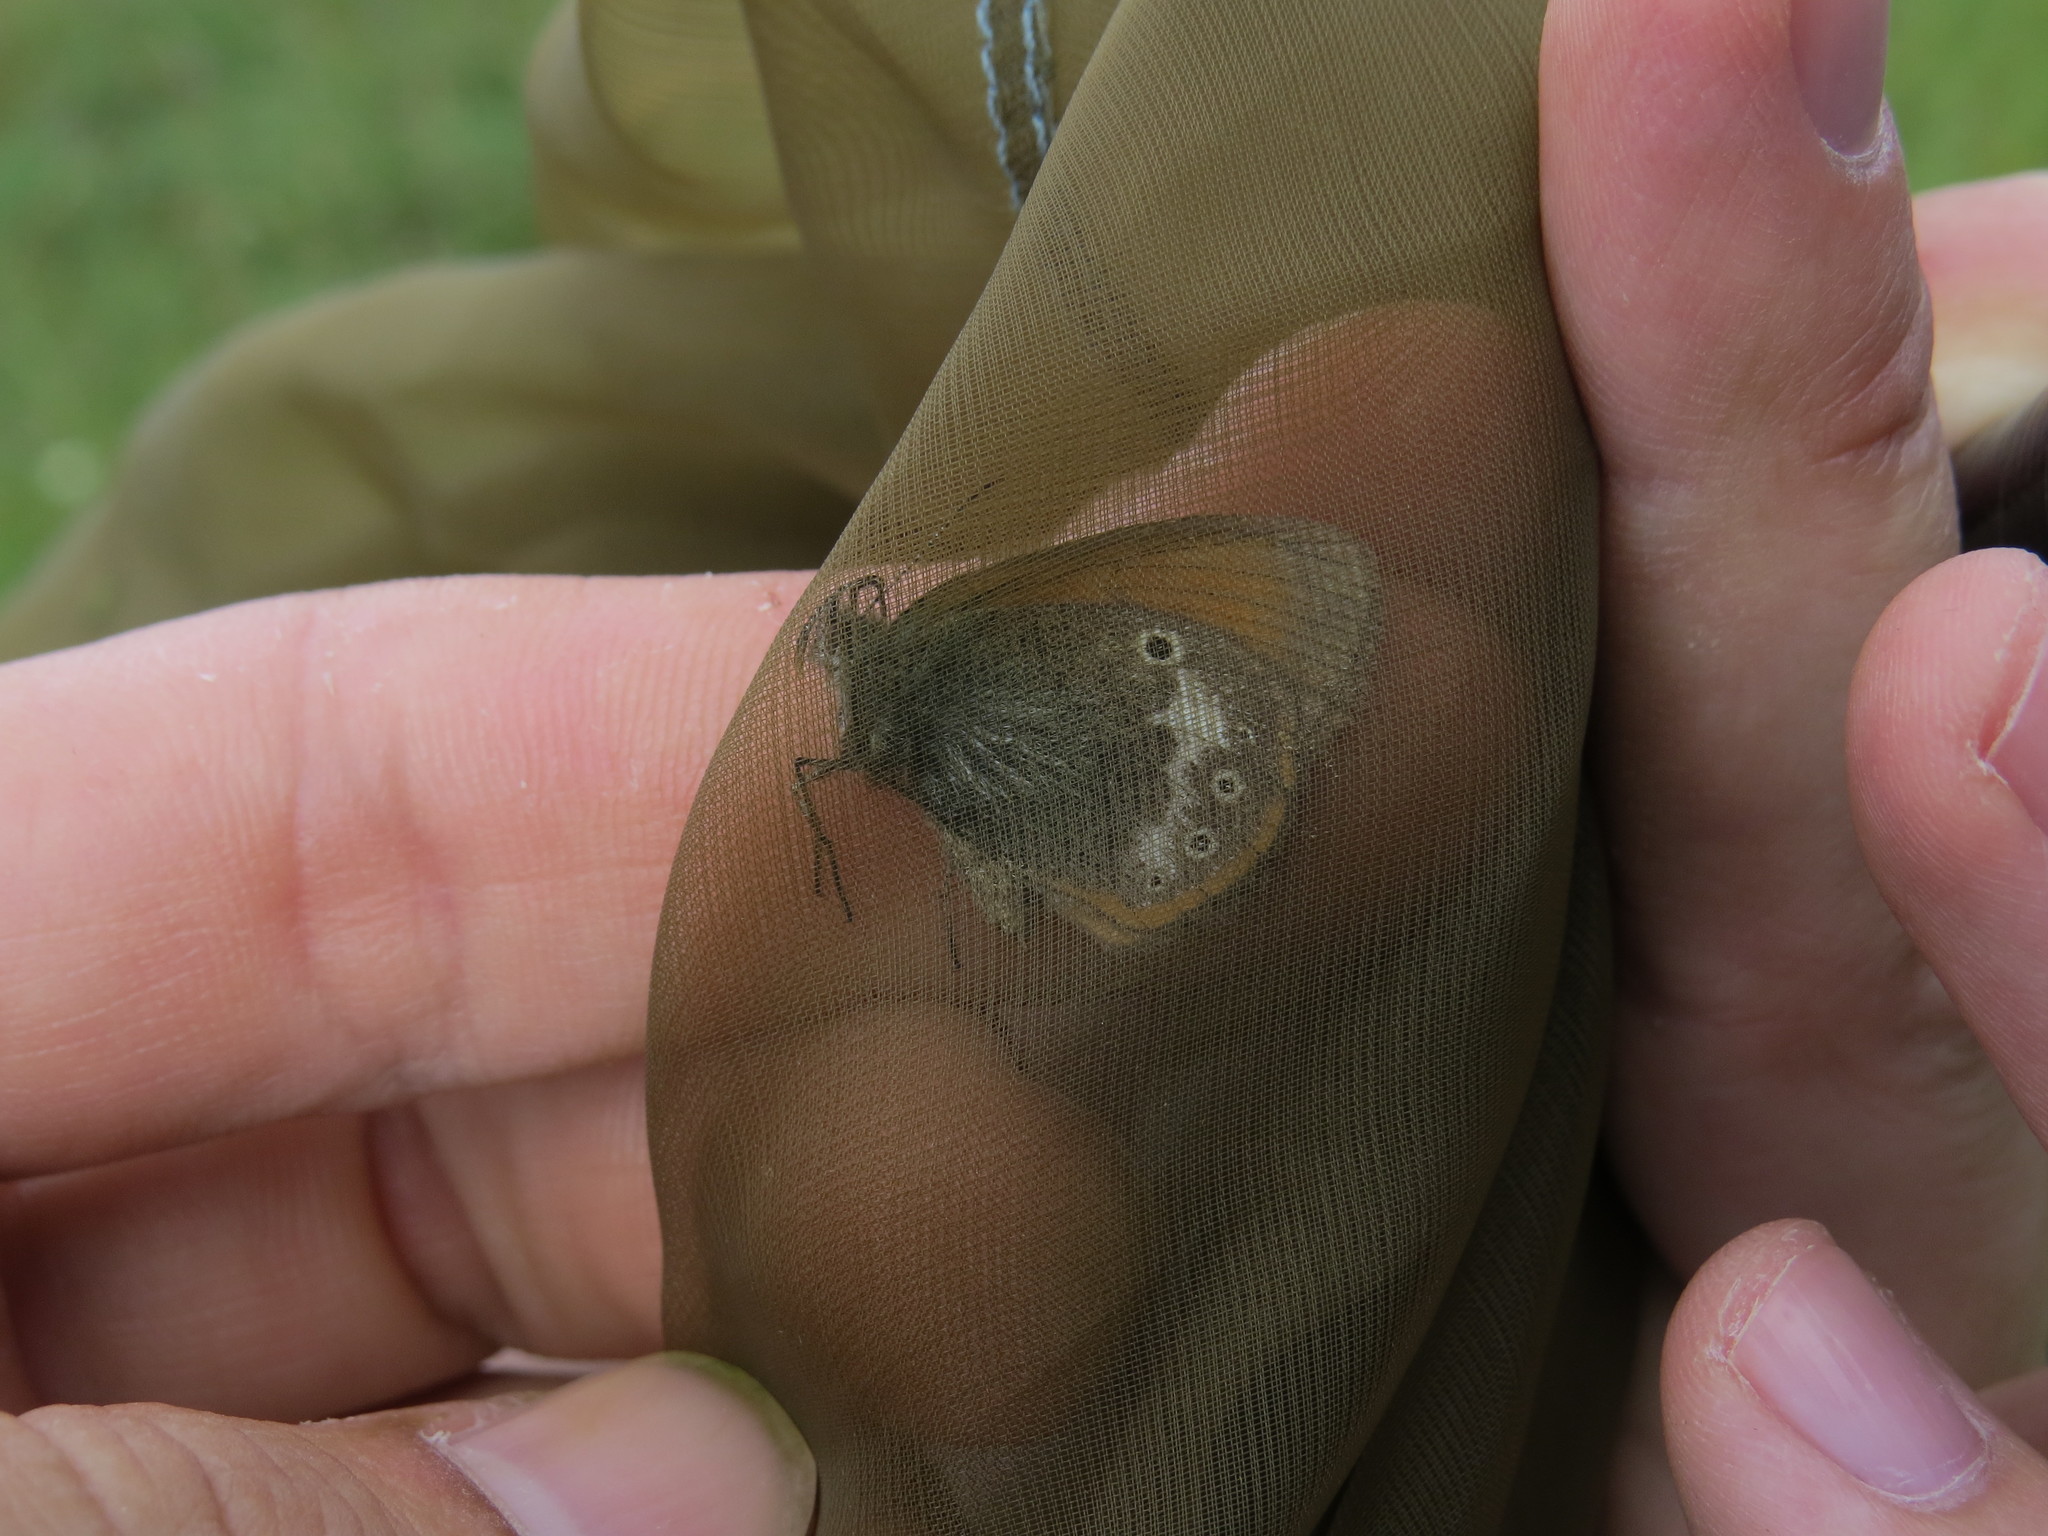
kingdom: Animalia
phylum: Arthropoda
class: Insecta
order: Lepidoptera
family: Nymphalidae
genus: Coenonympha
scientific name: Coenonympha iphis
